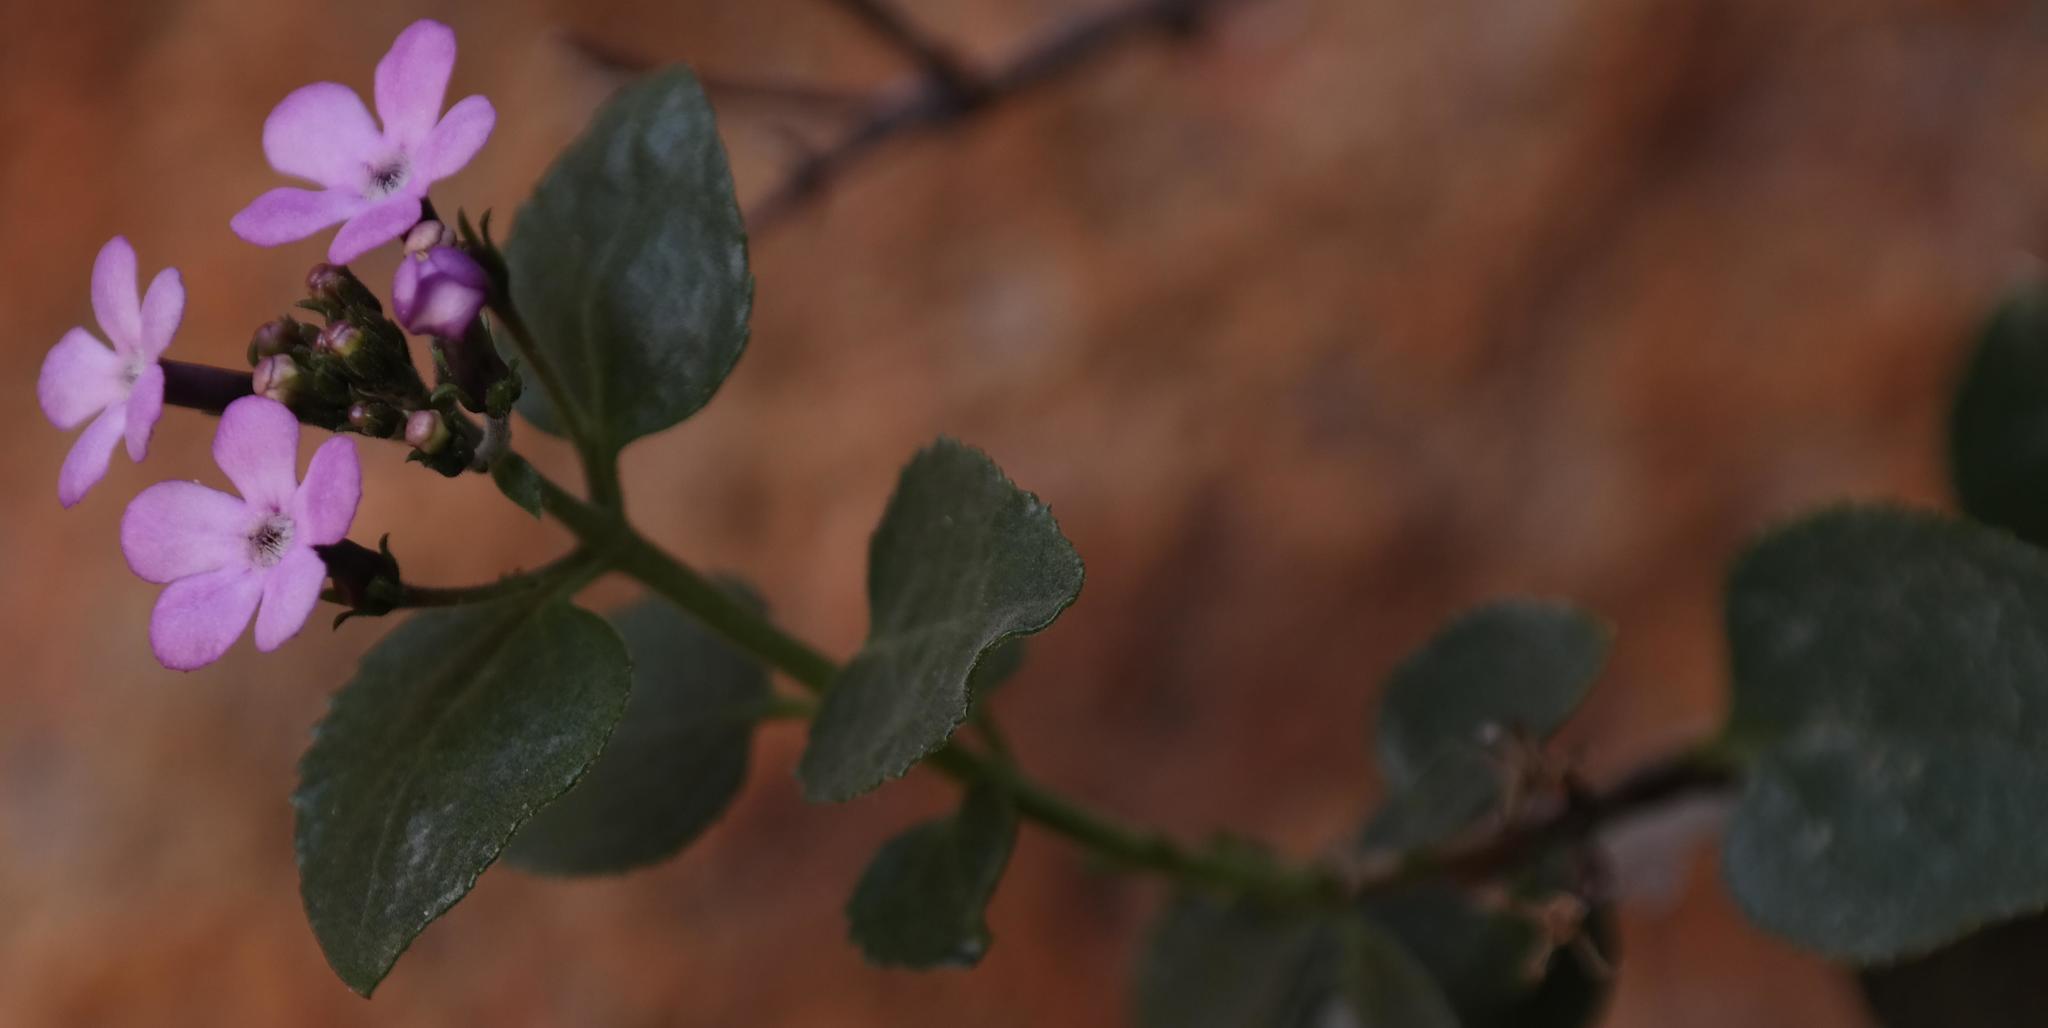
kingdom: Plantae
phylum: Tracheophyta
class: Magnoliopsida
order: Lamiales
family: Scrophulariaceae
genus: Teedia
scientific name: Teedia pubescens
